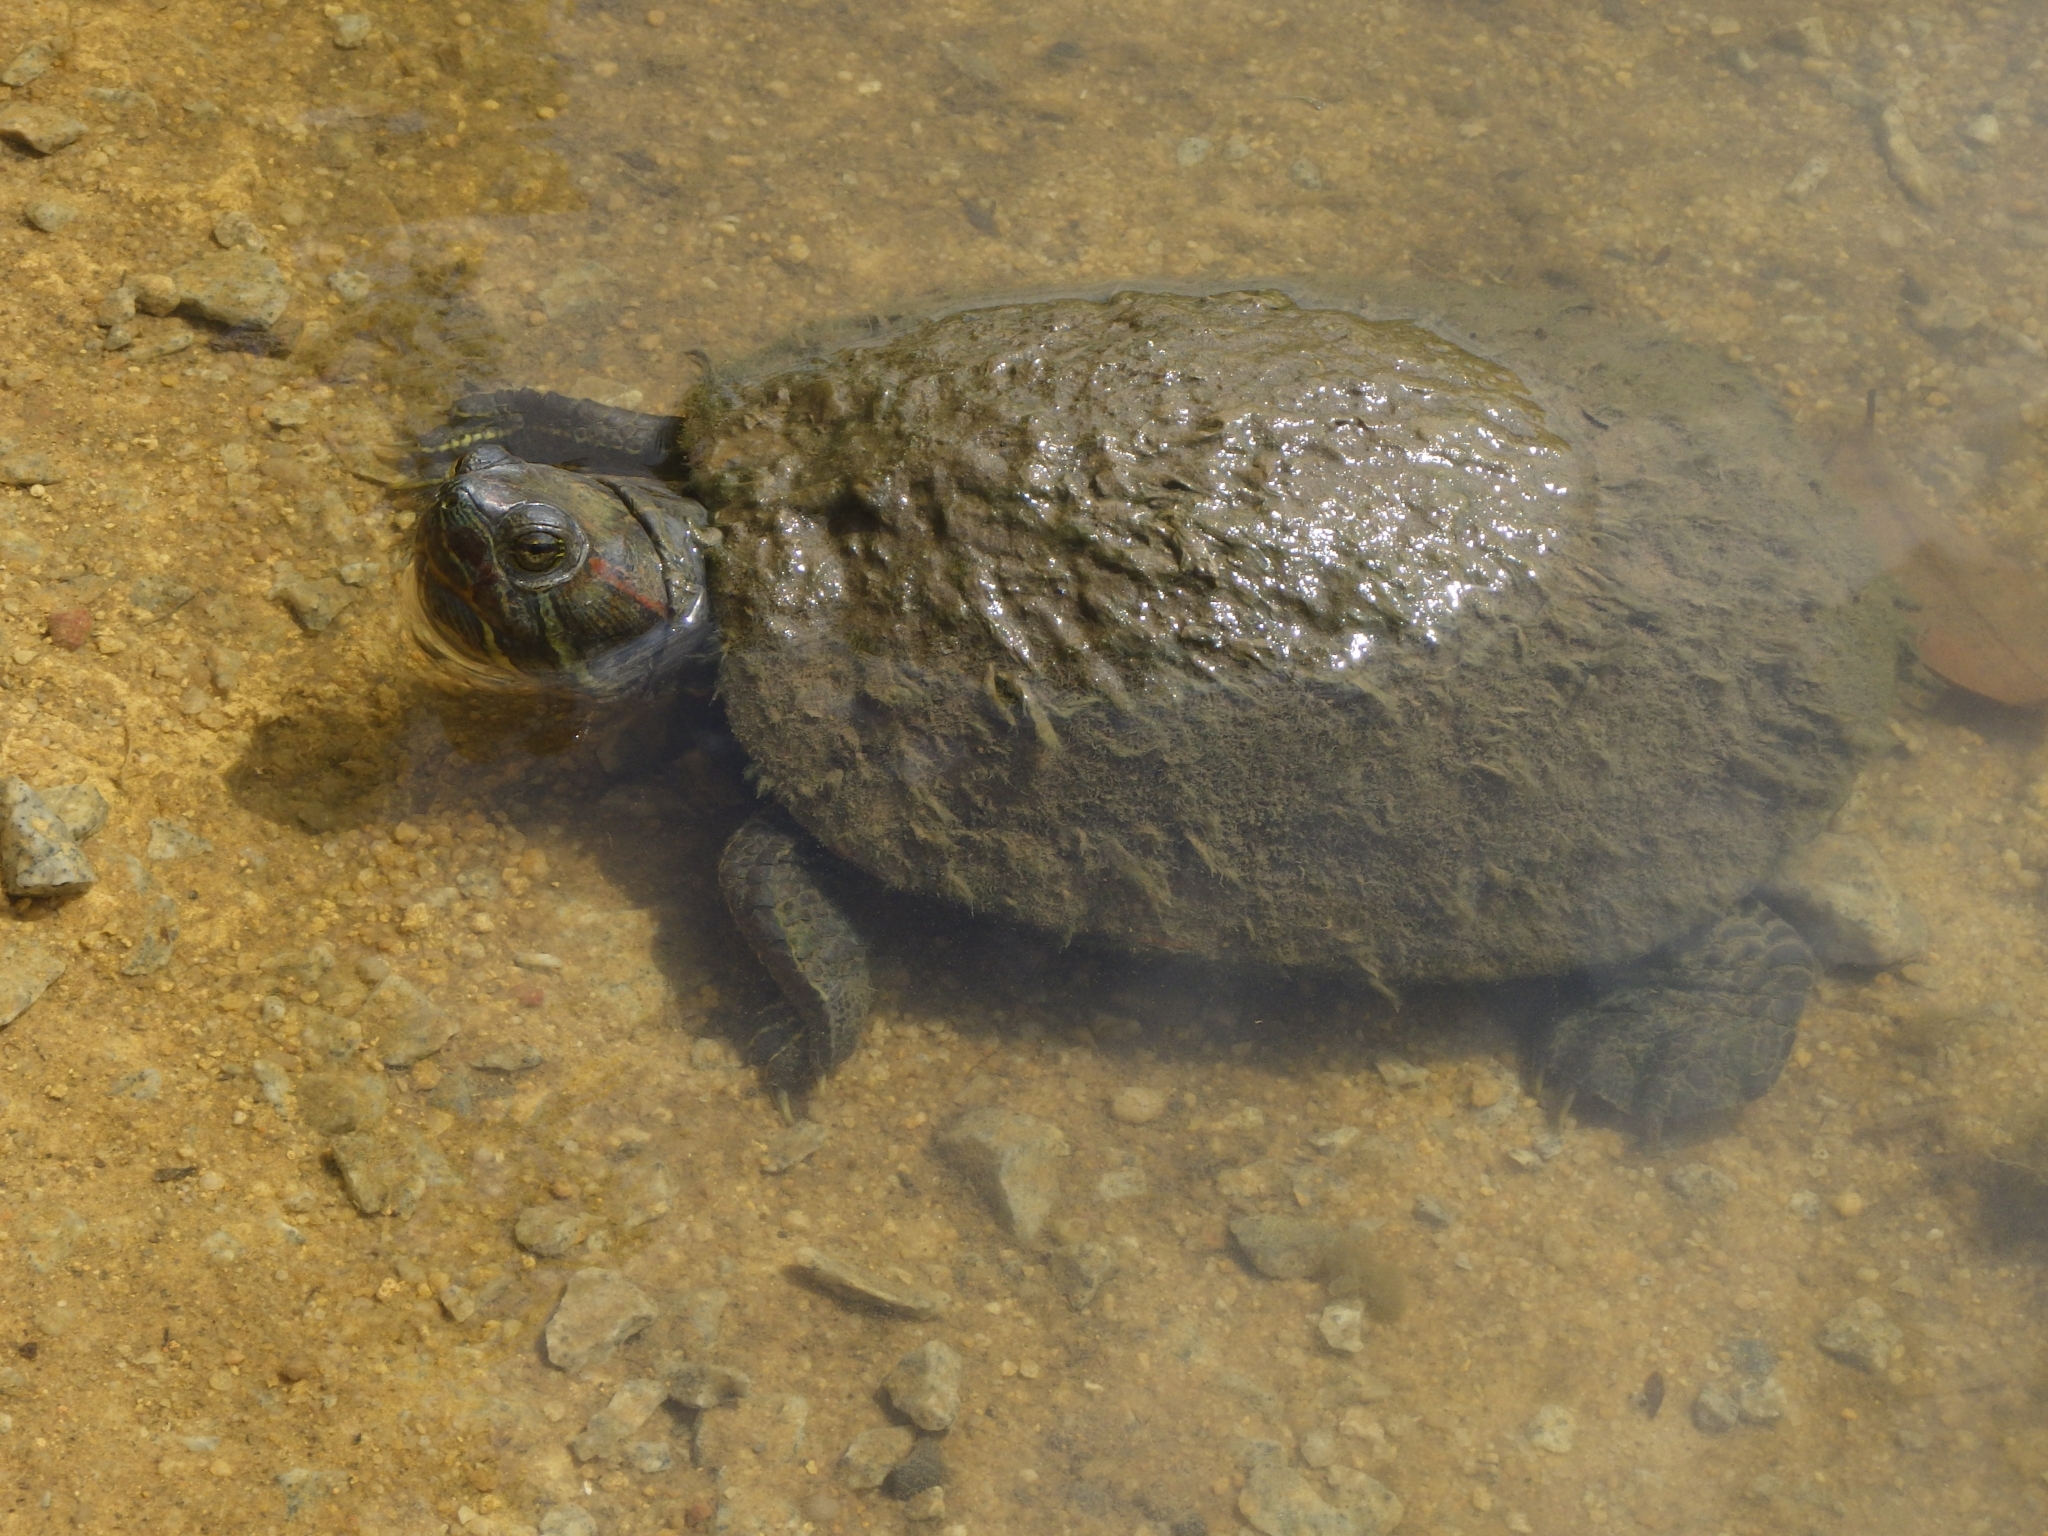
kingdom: Animalia
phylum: Chordata
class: Testudines
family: Emydidae
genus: Trachemys
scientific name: Trachemys scripta
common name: Slider
